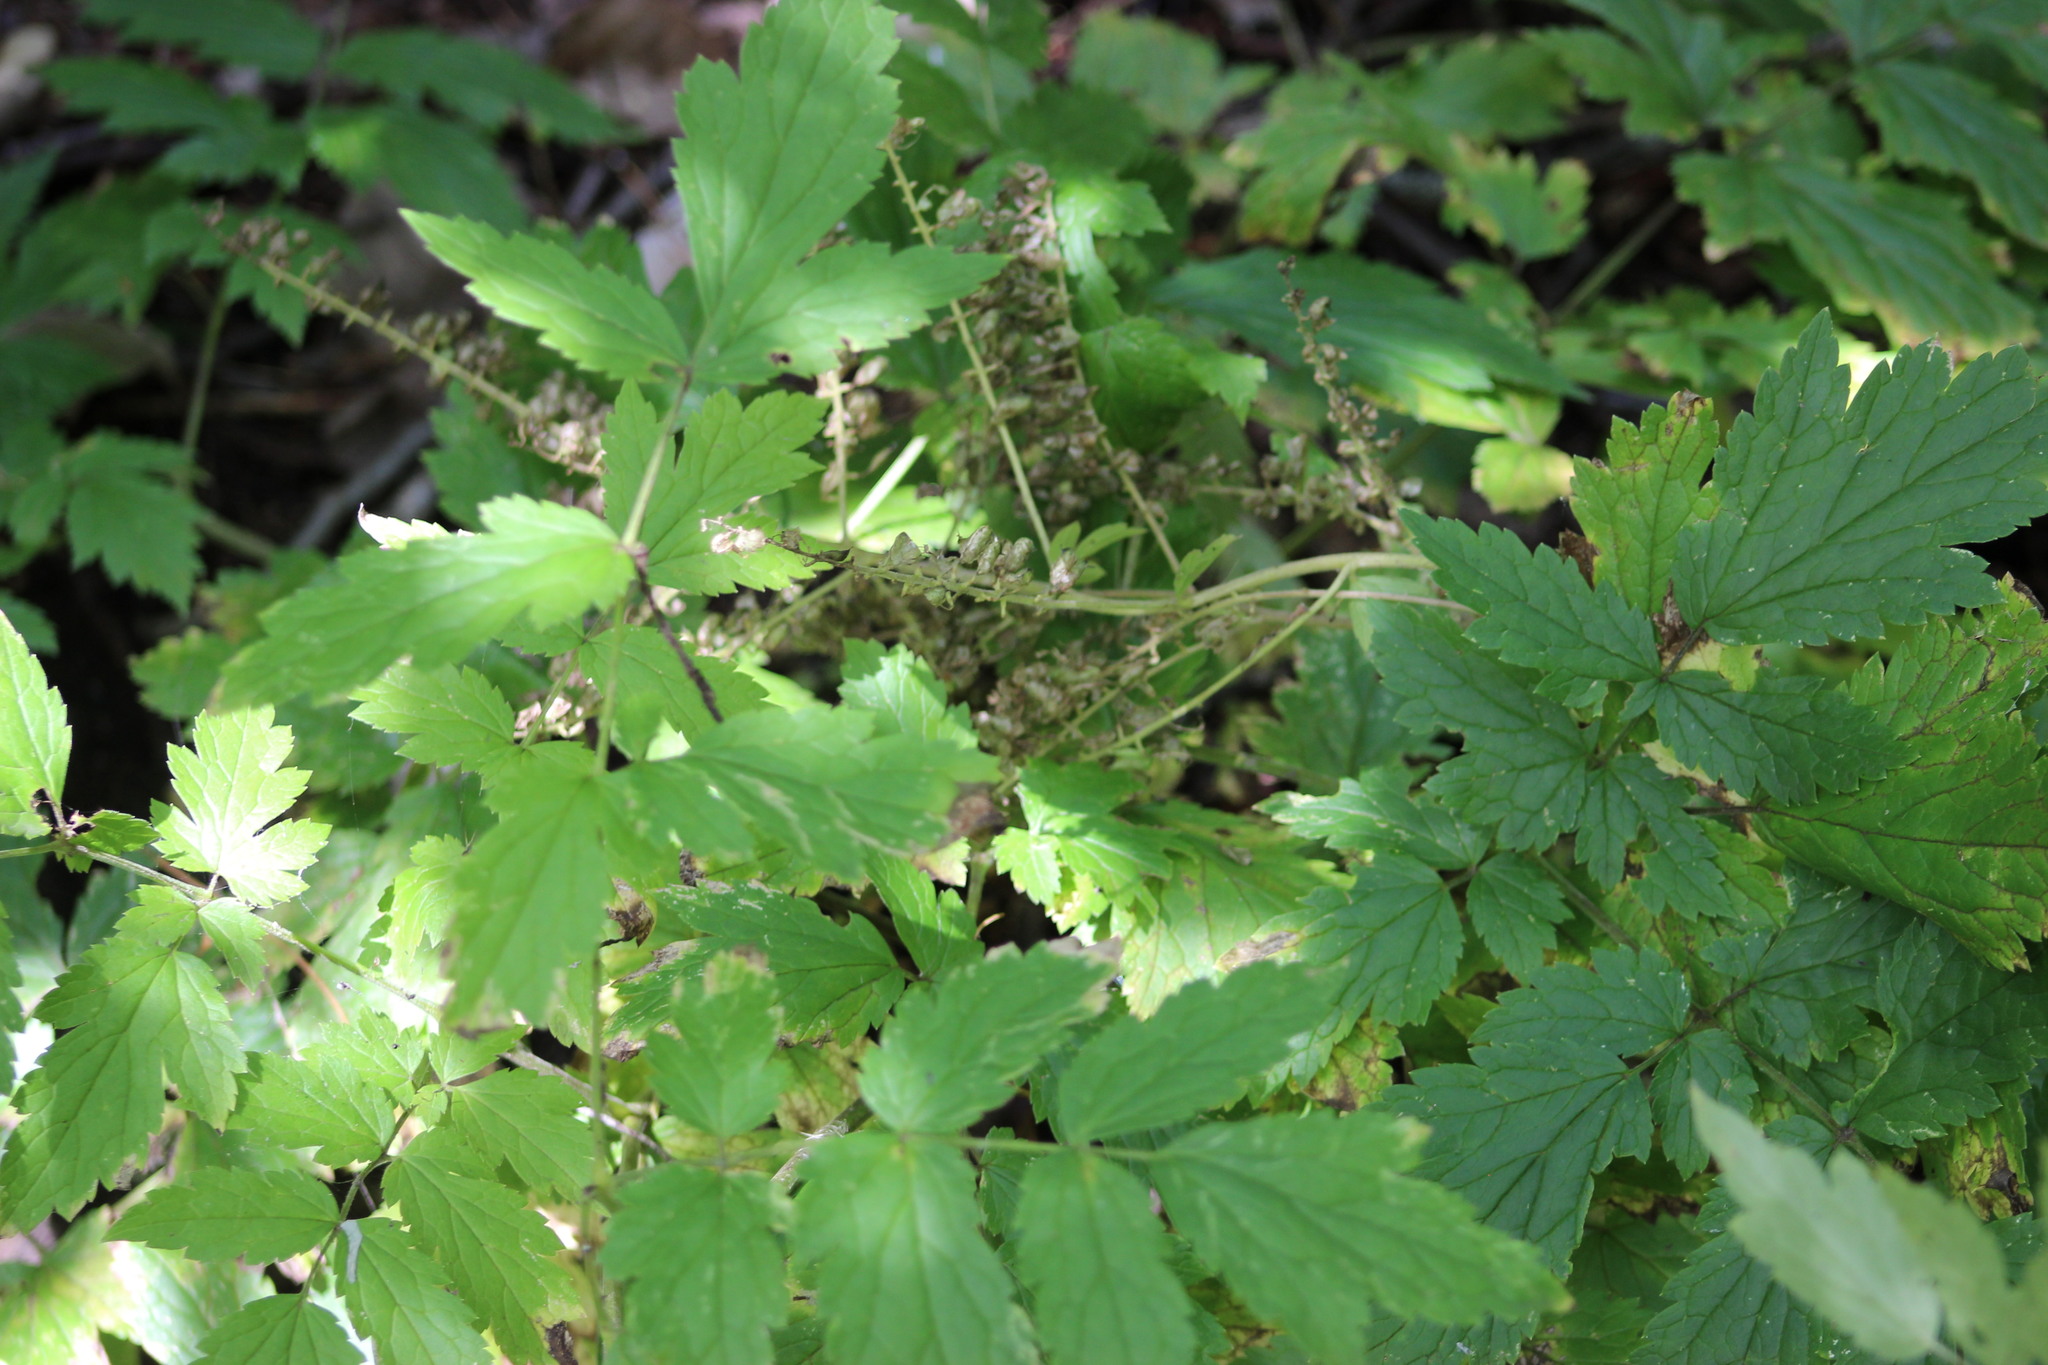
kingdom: Plantae
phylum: Tracheophyta
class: Magnoliopsida
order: Ranunculales
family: Ranunculaceae
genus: Actaea
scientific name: Actaea cimicifuga
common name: Chinese cimicifuga
